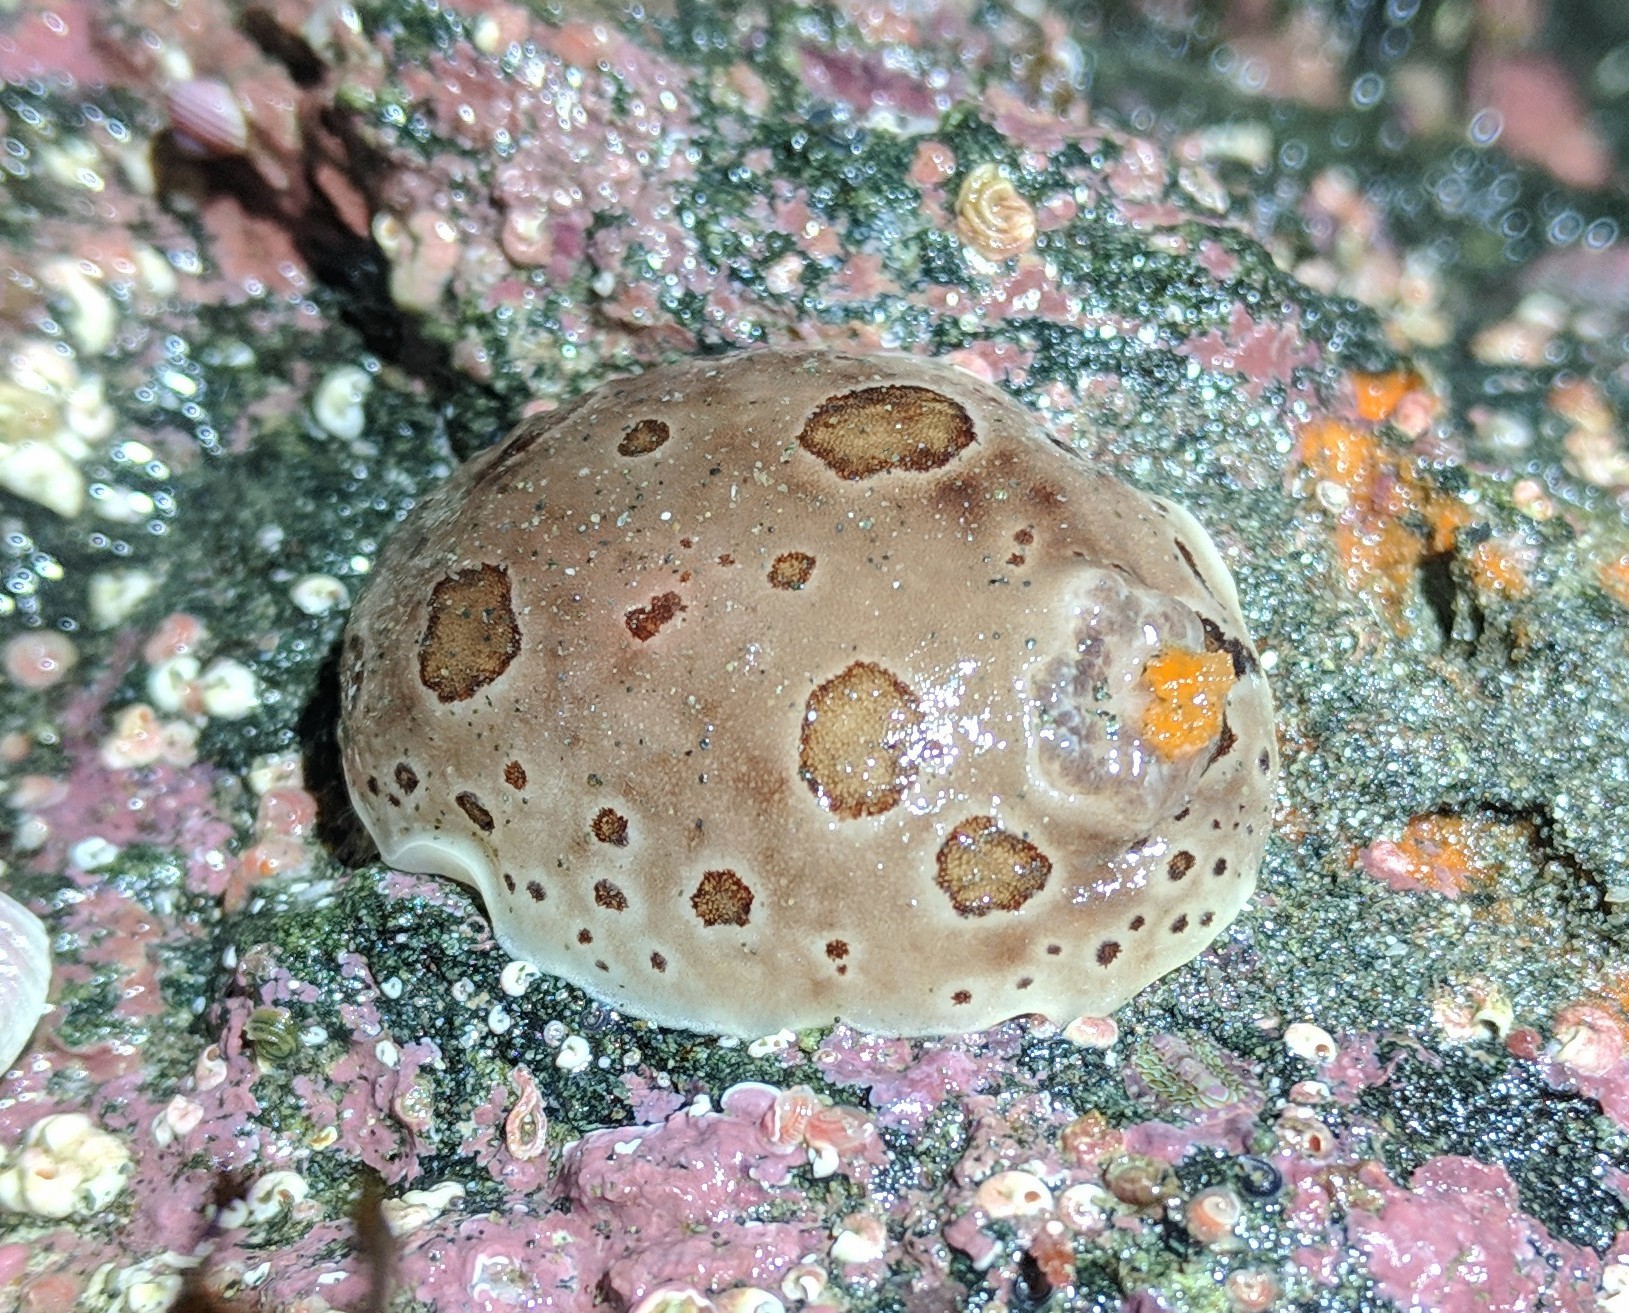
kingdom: Animalia
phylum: Mollusca
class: Gastropoda
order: Nudibranchia
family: Discodorididae
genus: Diaulula
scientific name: Diaulula odonoghuei
